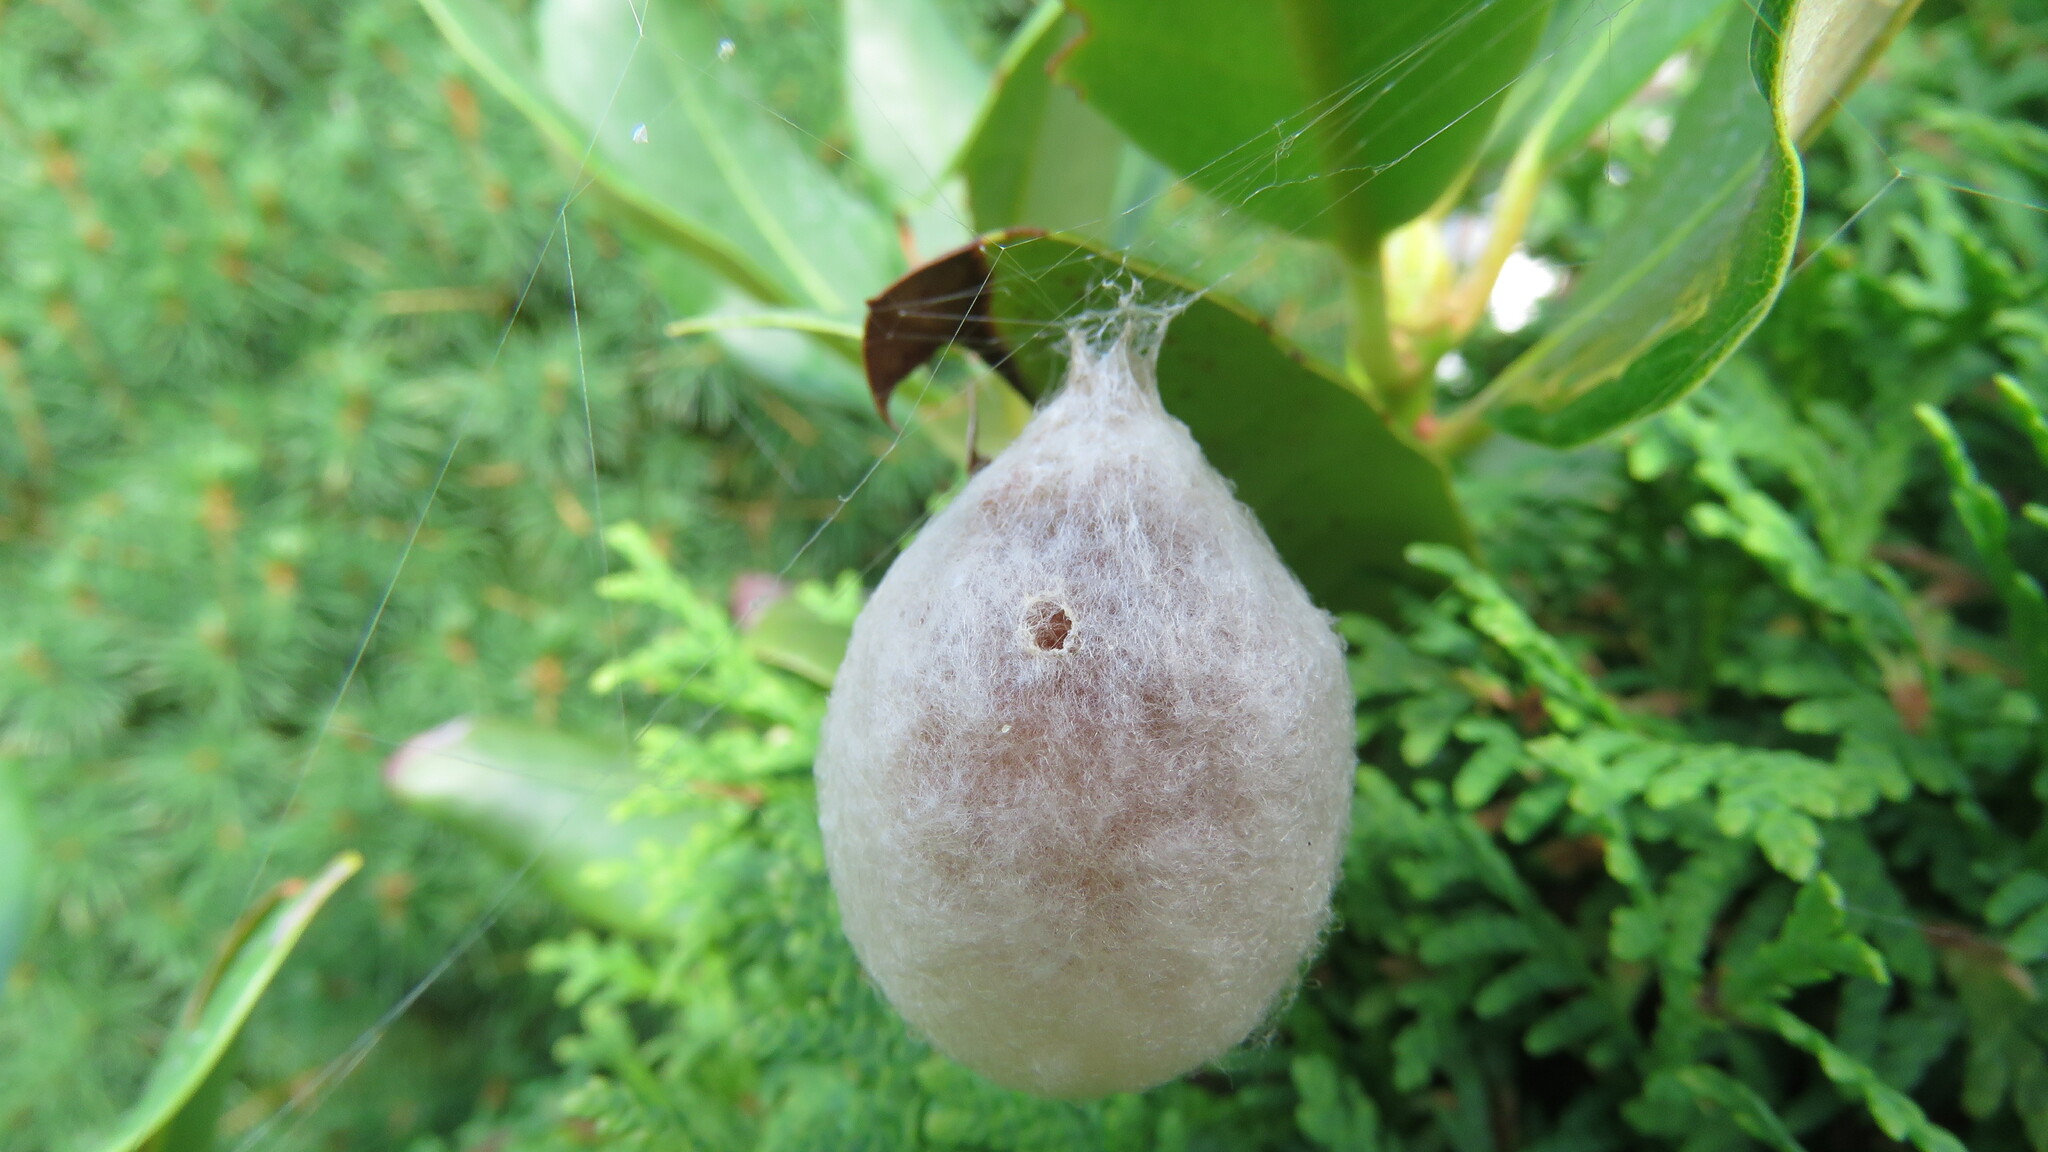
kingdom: Animalia
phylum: Arthropoda
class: Arachnida
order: Araneae
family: Araneidae
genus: Argiope
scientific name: Argiope aurantia
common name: Orb weavers
